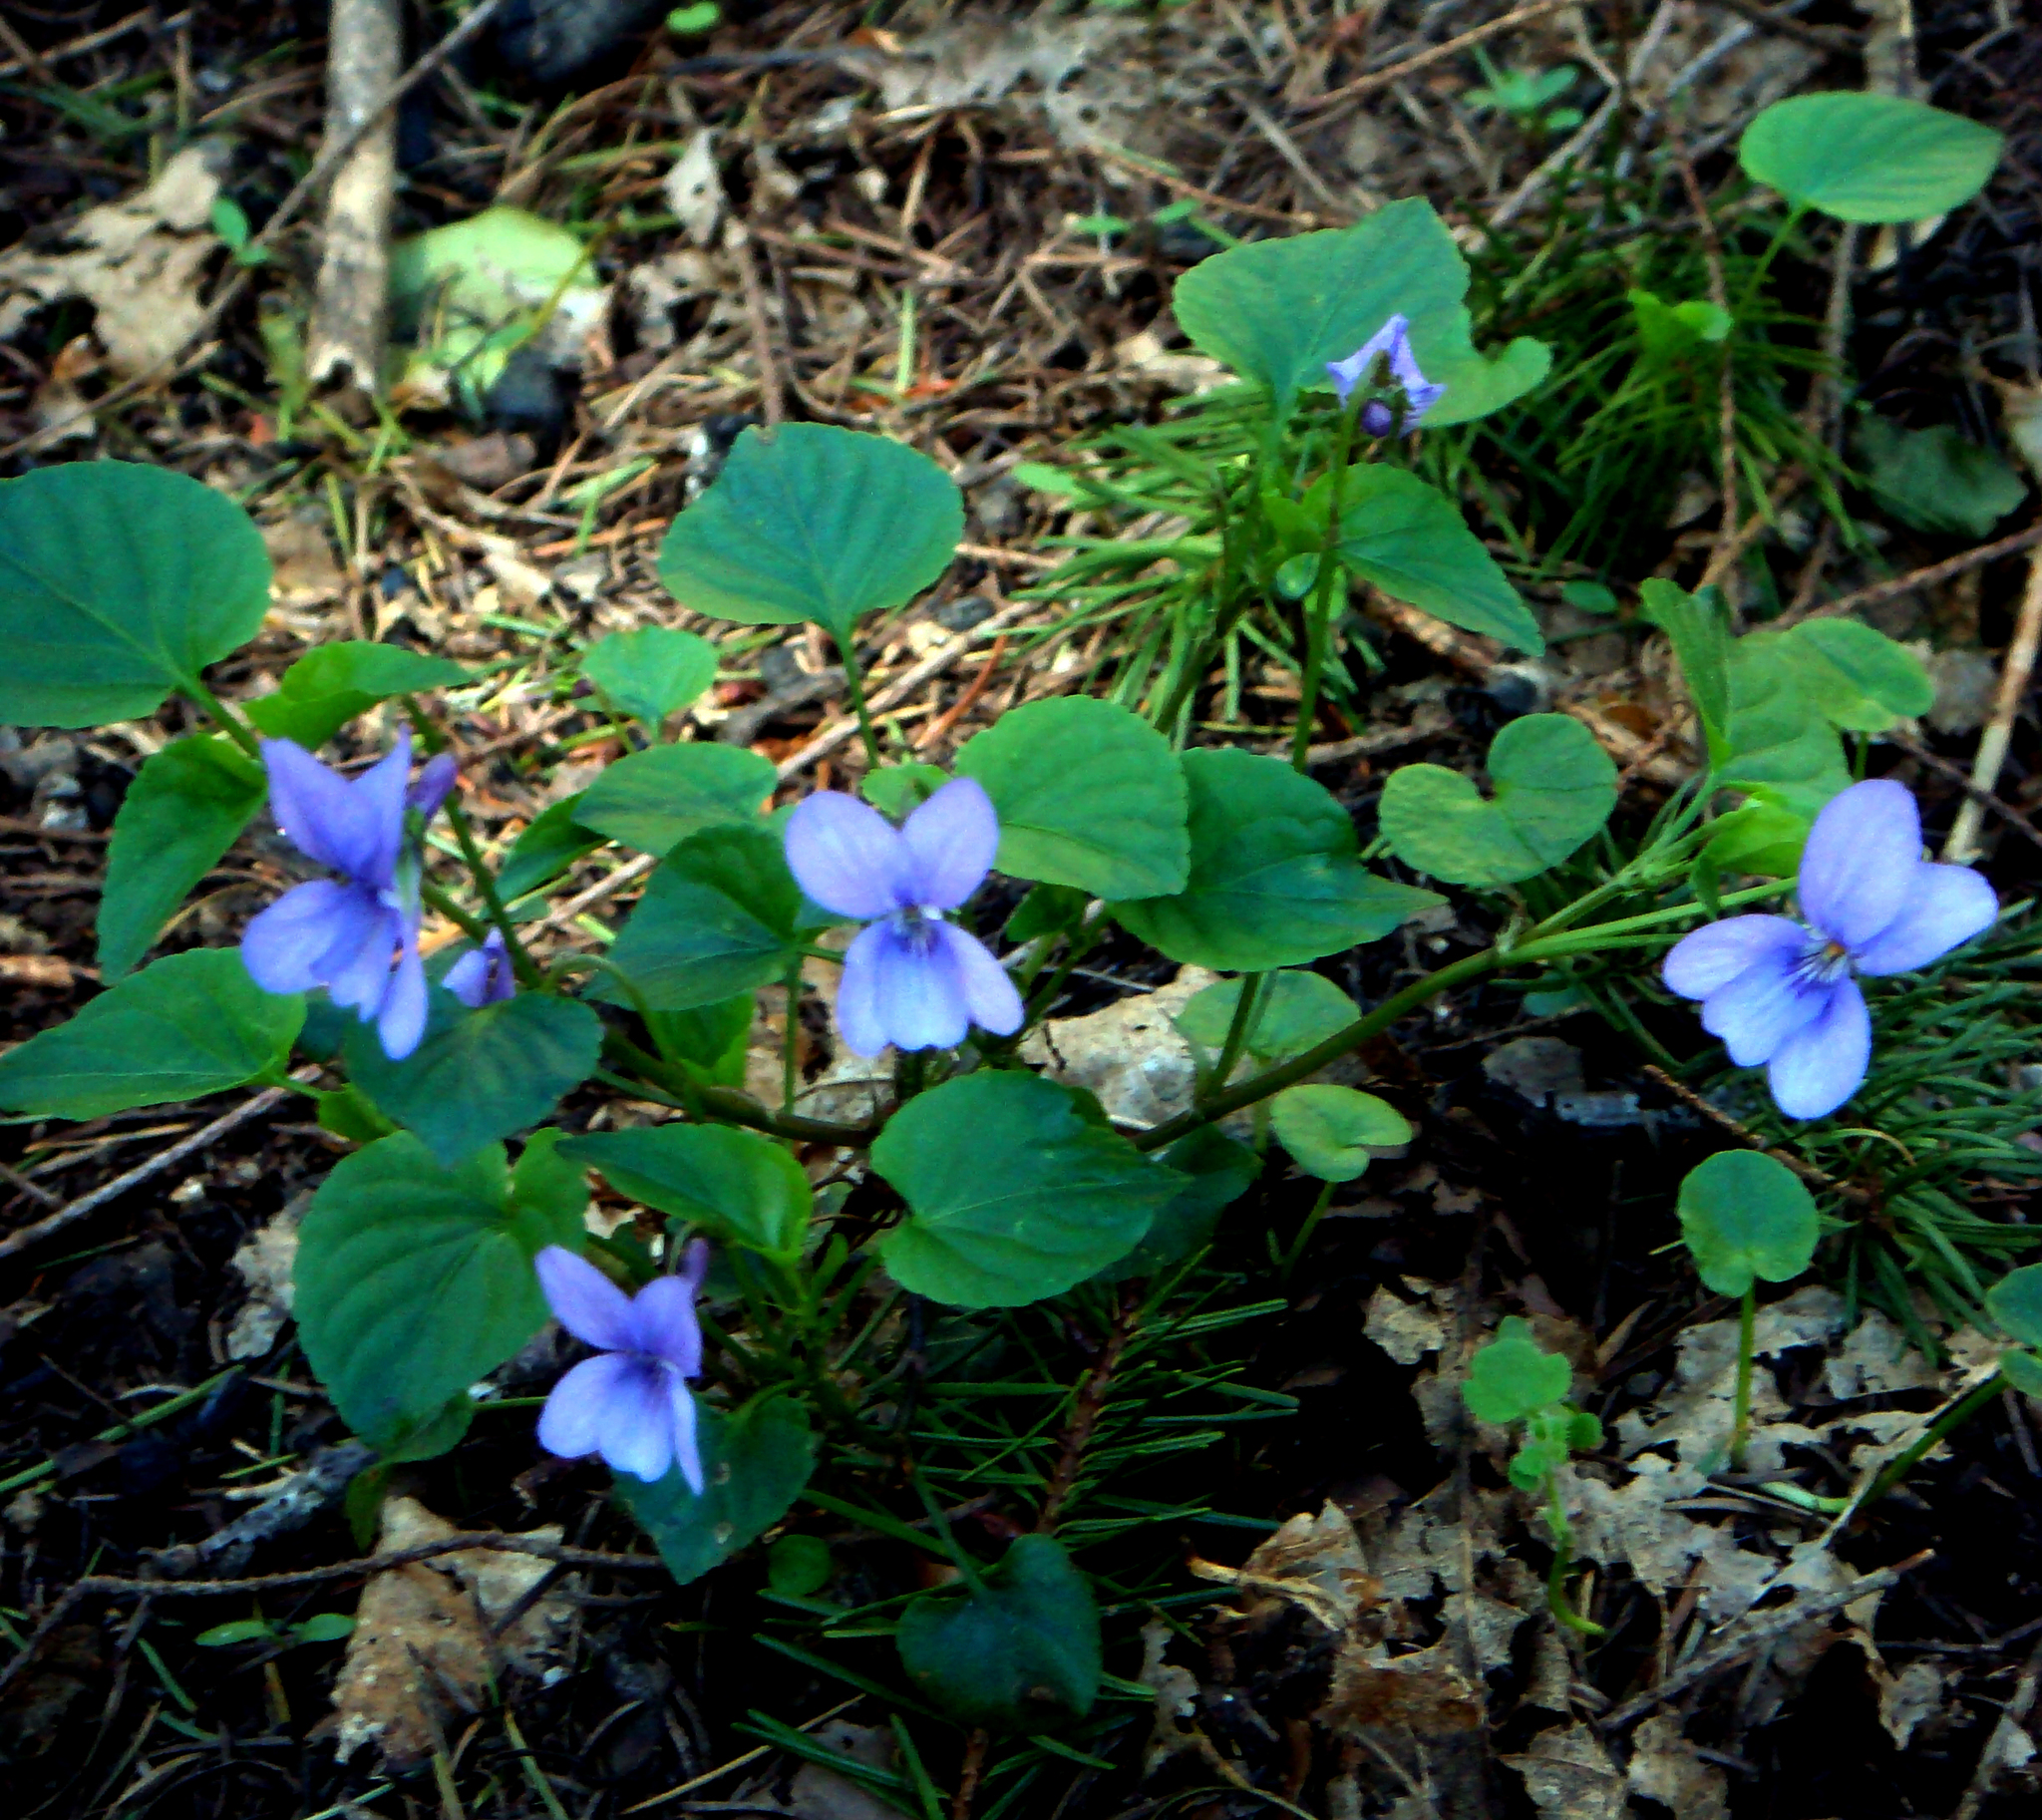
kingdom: Plantae
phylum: Tracheophyta
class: Magnoliopsida
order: Malpighiales
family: Violaceae
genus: Viola
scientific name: Viola reichenbachiana
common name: Early dog-violet
